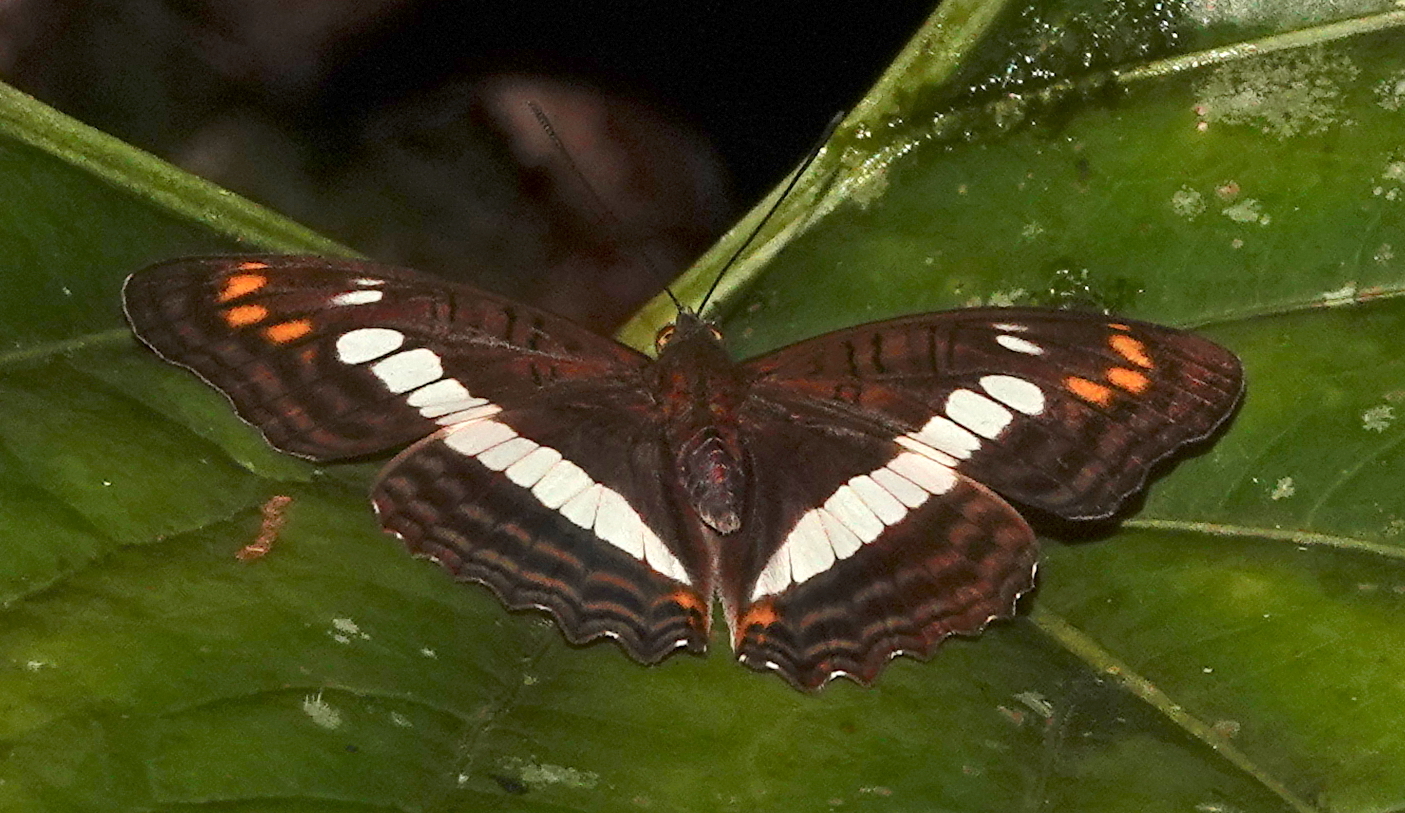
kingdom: Animalia
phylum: Arthropoda
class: Insecta
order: Lepidoptera
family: Nymphalidae
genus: Limenitis
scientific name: Limenitis alala
